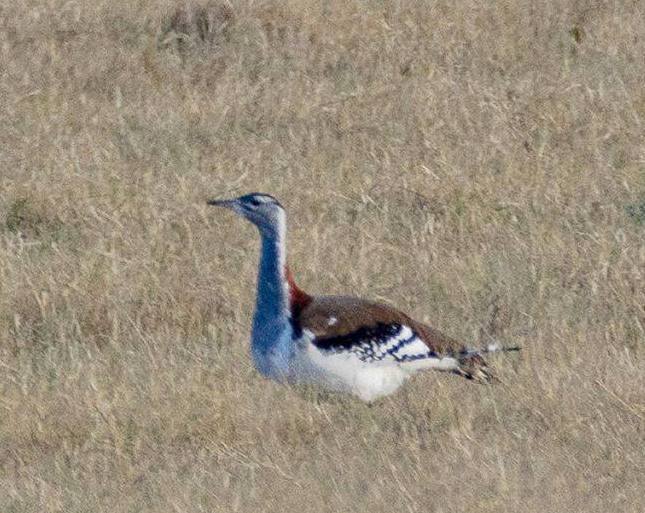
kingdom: Animalia
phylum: Chordata
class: Aves
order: Otidiformes
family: Otididae
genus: Neotis
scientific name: Neotis denhami
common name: Denham's bustard
